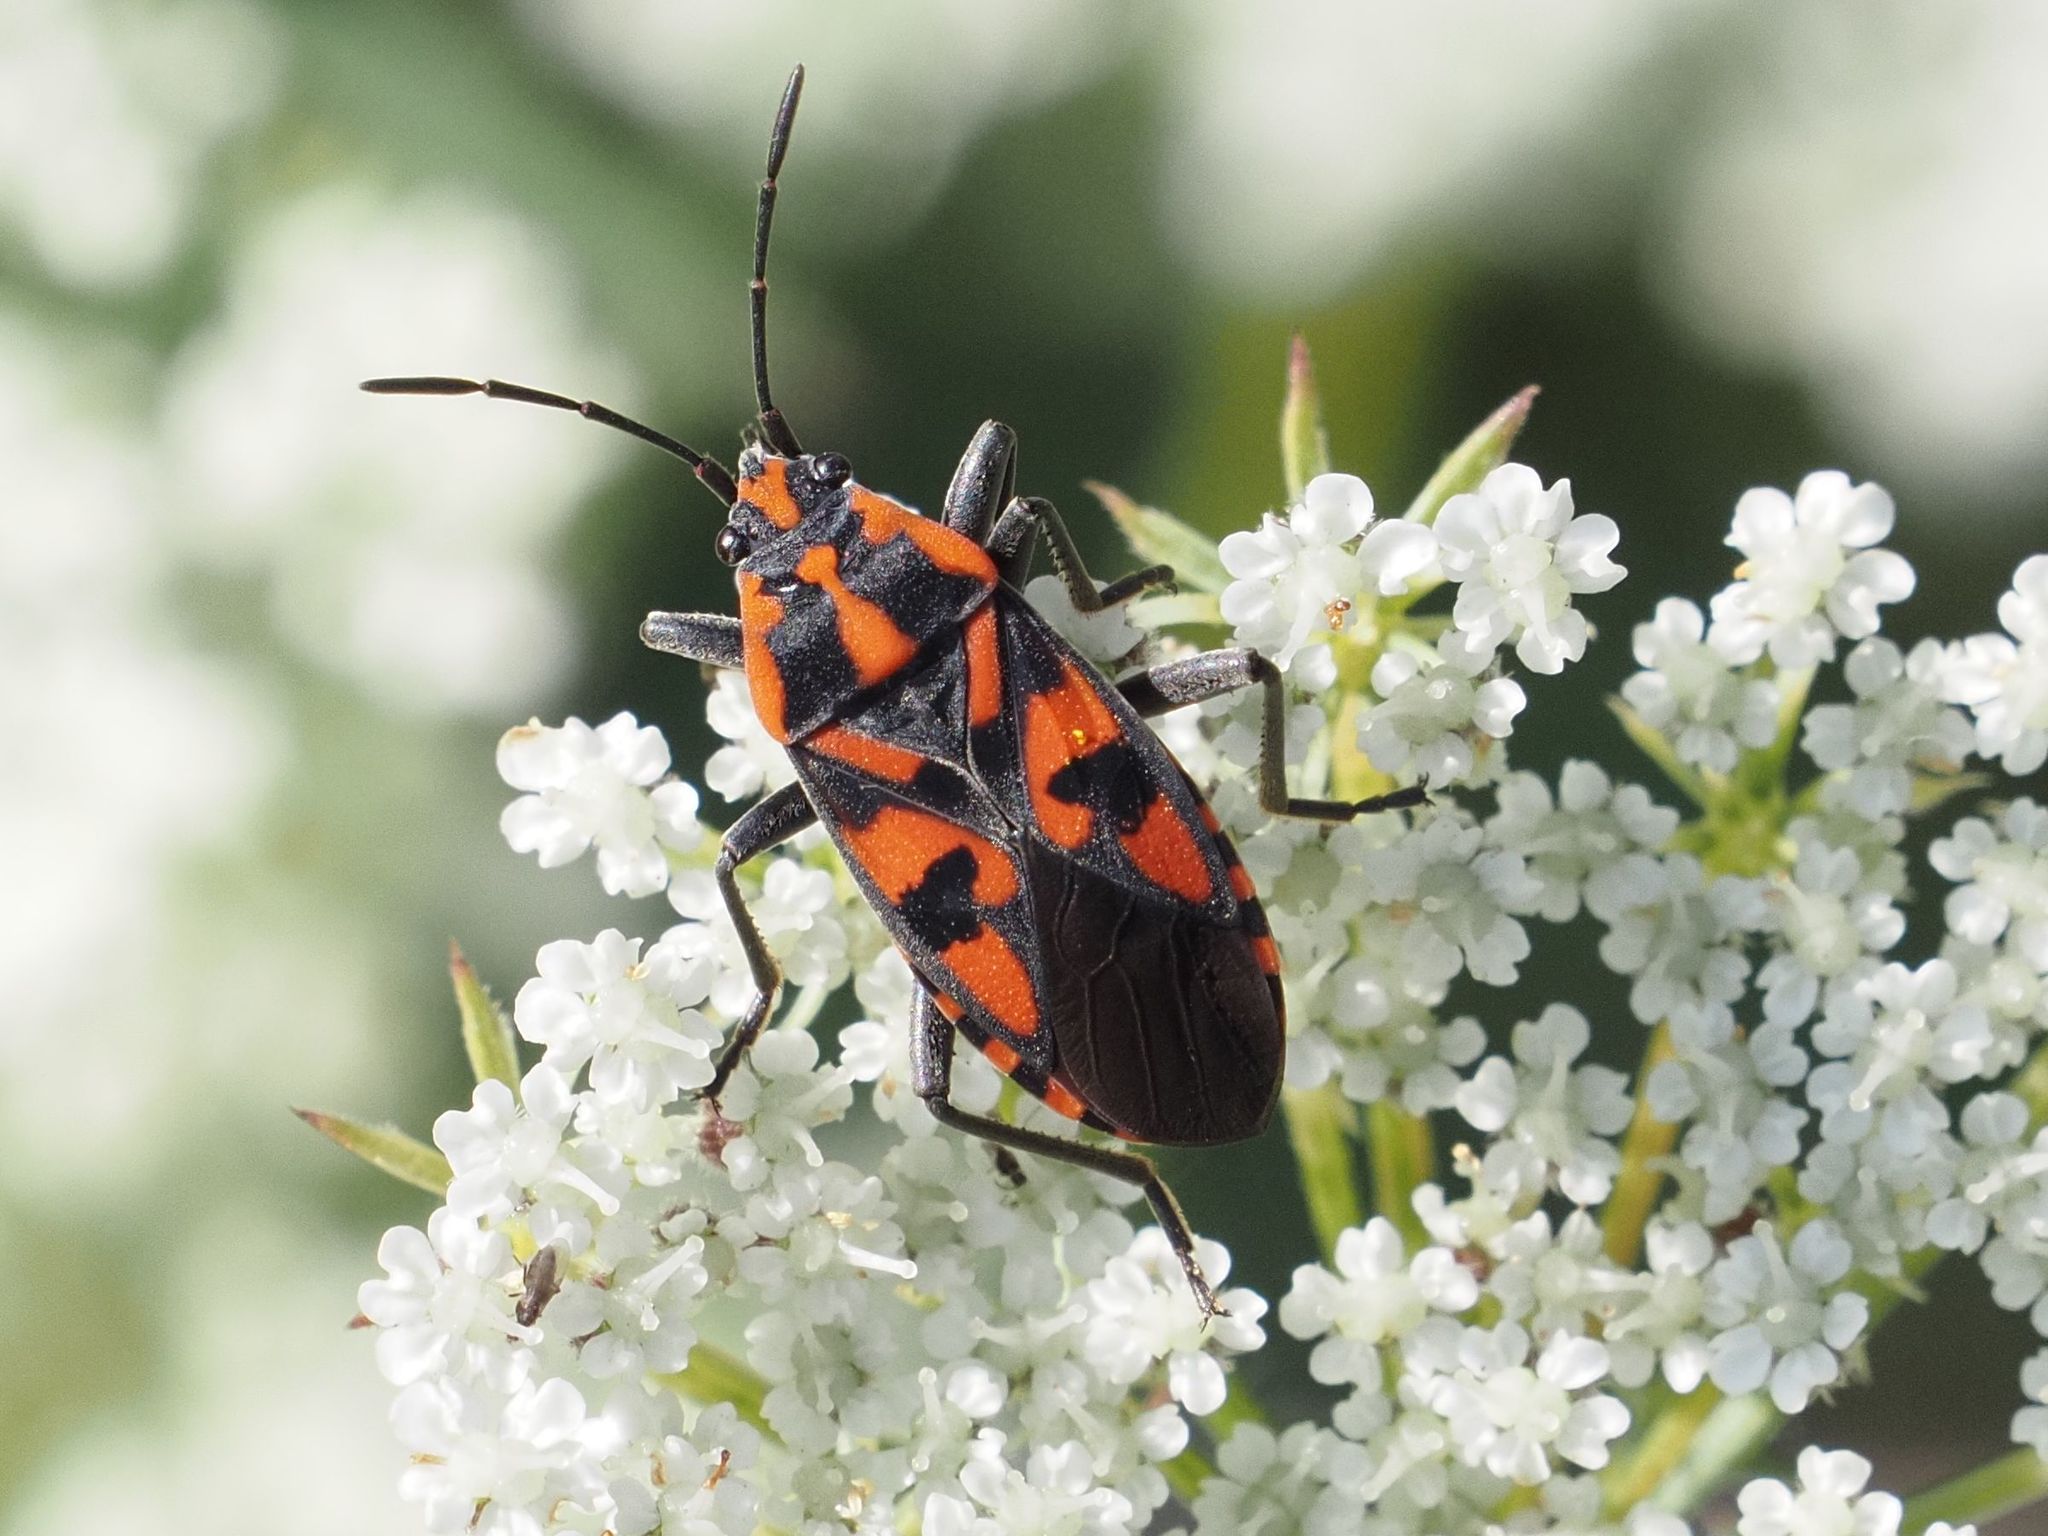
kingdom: Animalia
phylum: Arthropoda
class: Insecta
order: Hemiptera
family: Lygaeidae
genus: Spilostethus
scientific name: Spilostethus saxatilis
